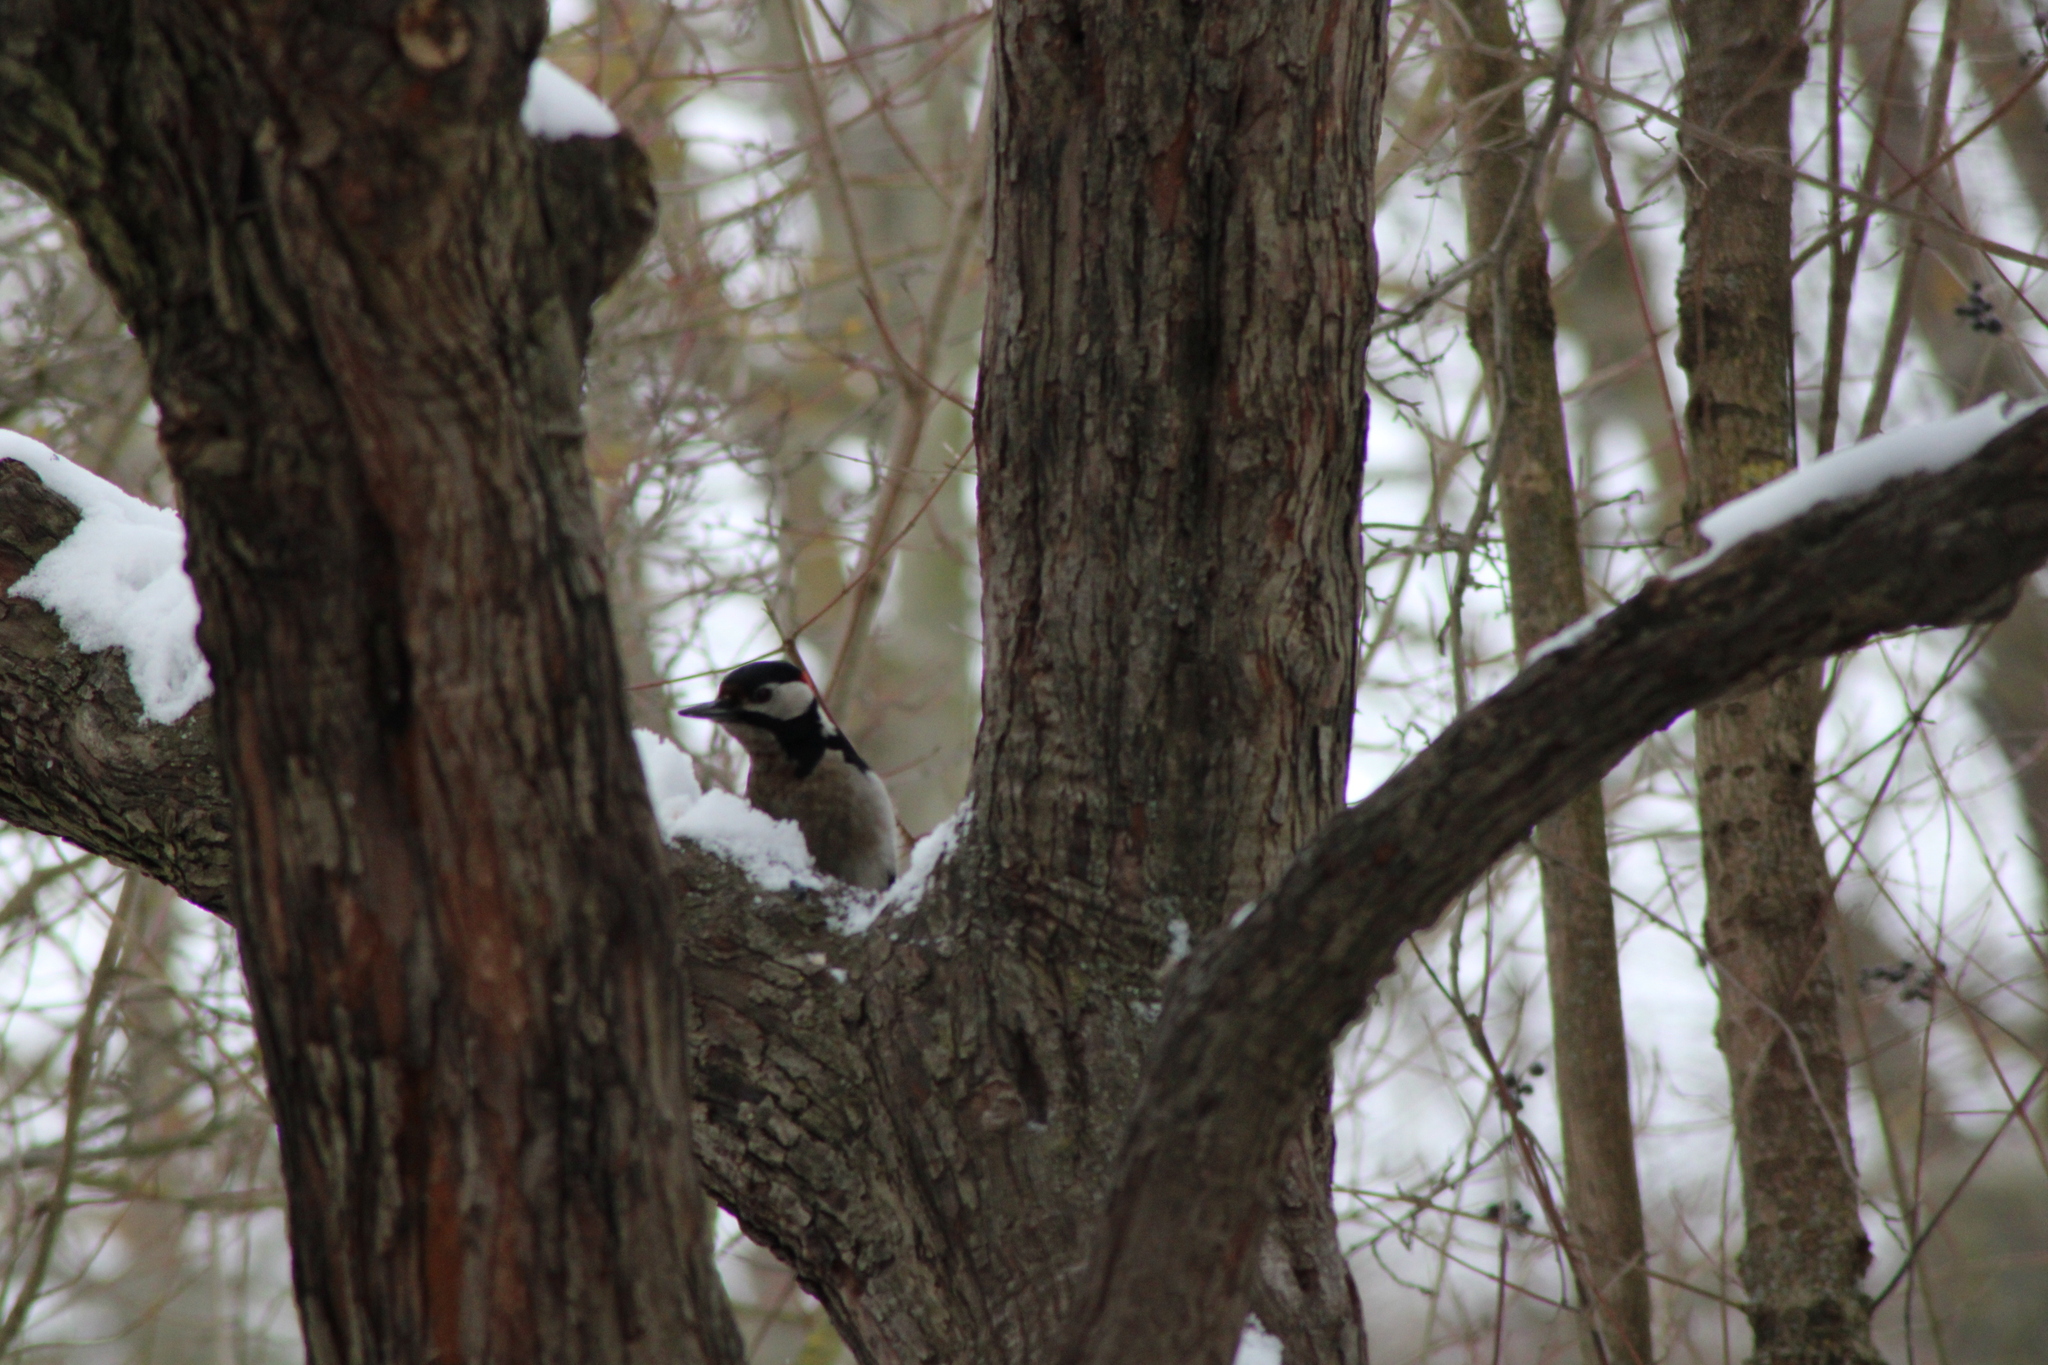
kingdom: Animalia
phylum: Chordata
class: Aves
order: Piciformes
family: Picidae
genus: Dendrocopos
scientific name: Dendrocopos major
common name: Great spotted woodpecker
